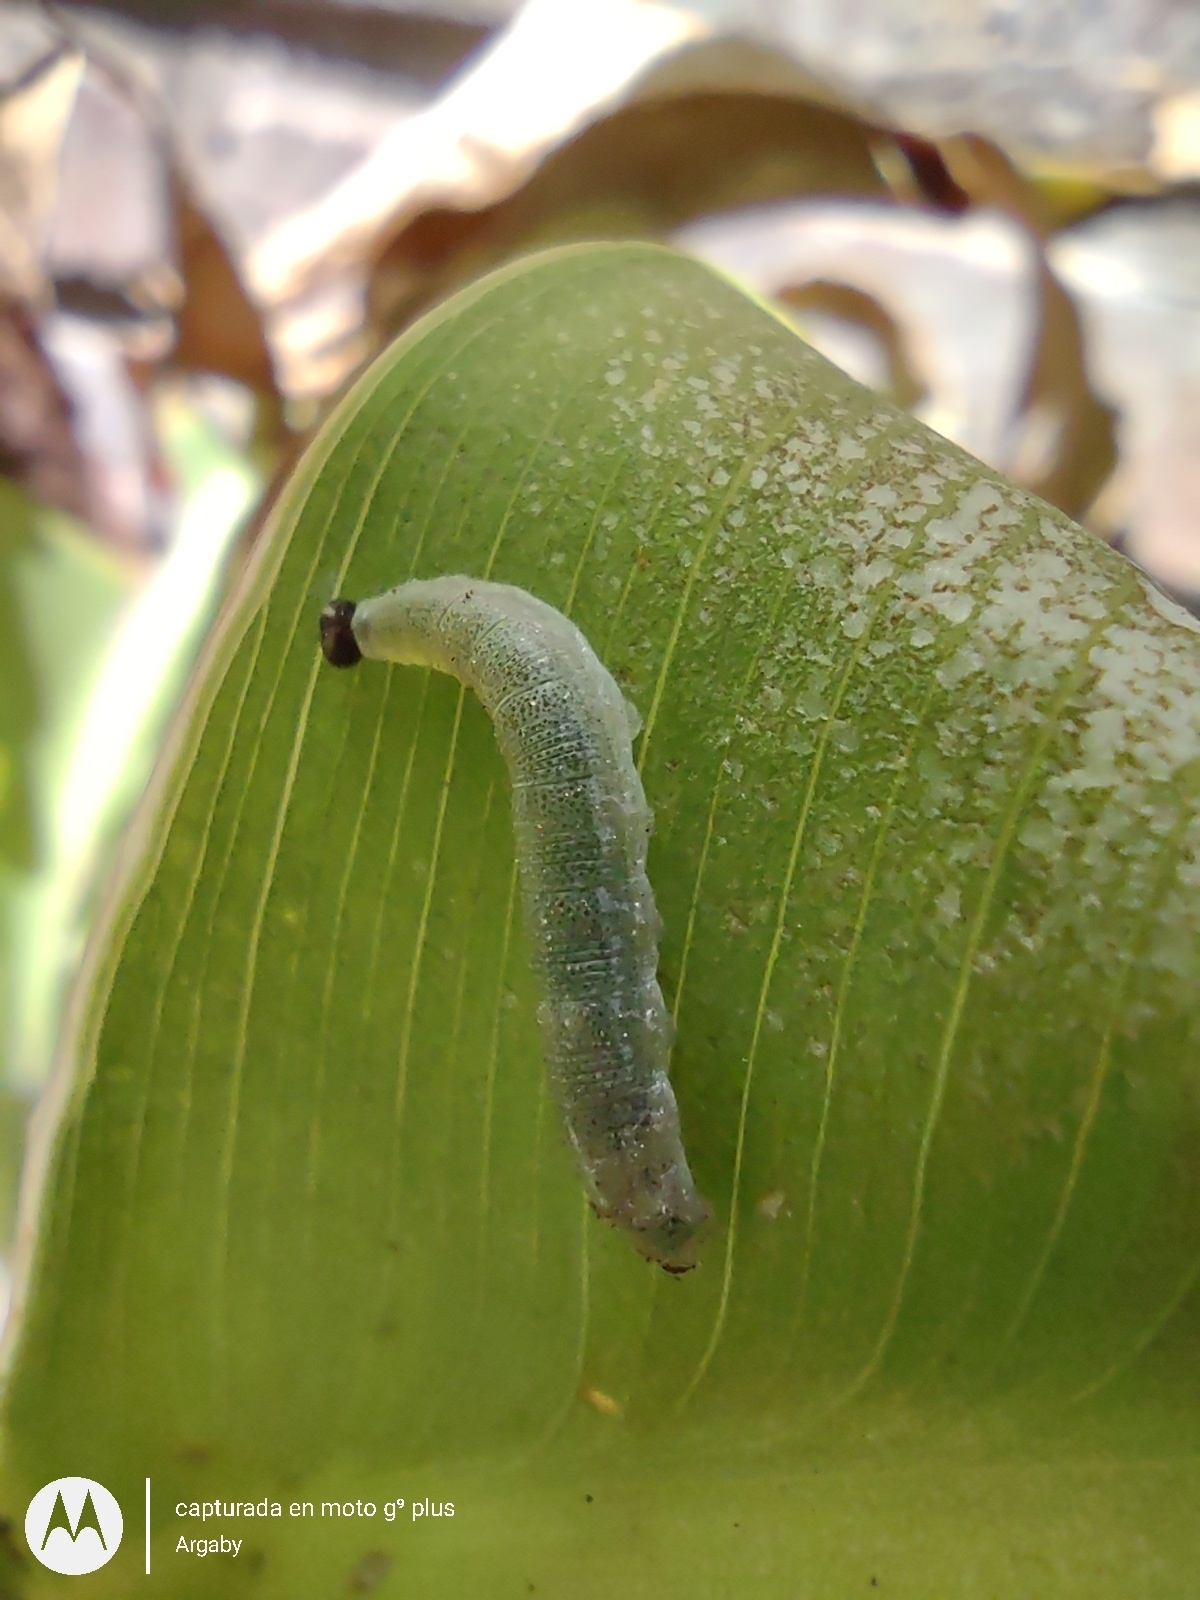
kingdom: Animalia
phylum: Arthropoda
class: Insecta
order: Lepidoptera
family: Hesperiidae
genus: Quinta
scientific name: Quinta cannae
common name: Canna skipper
